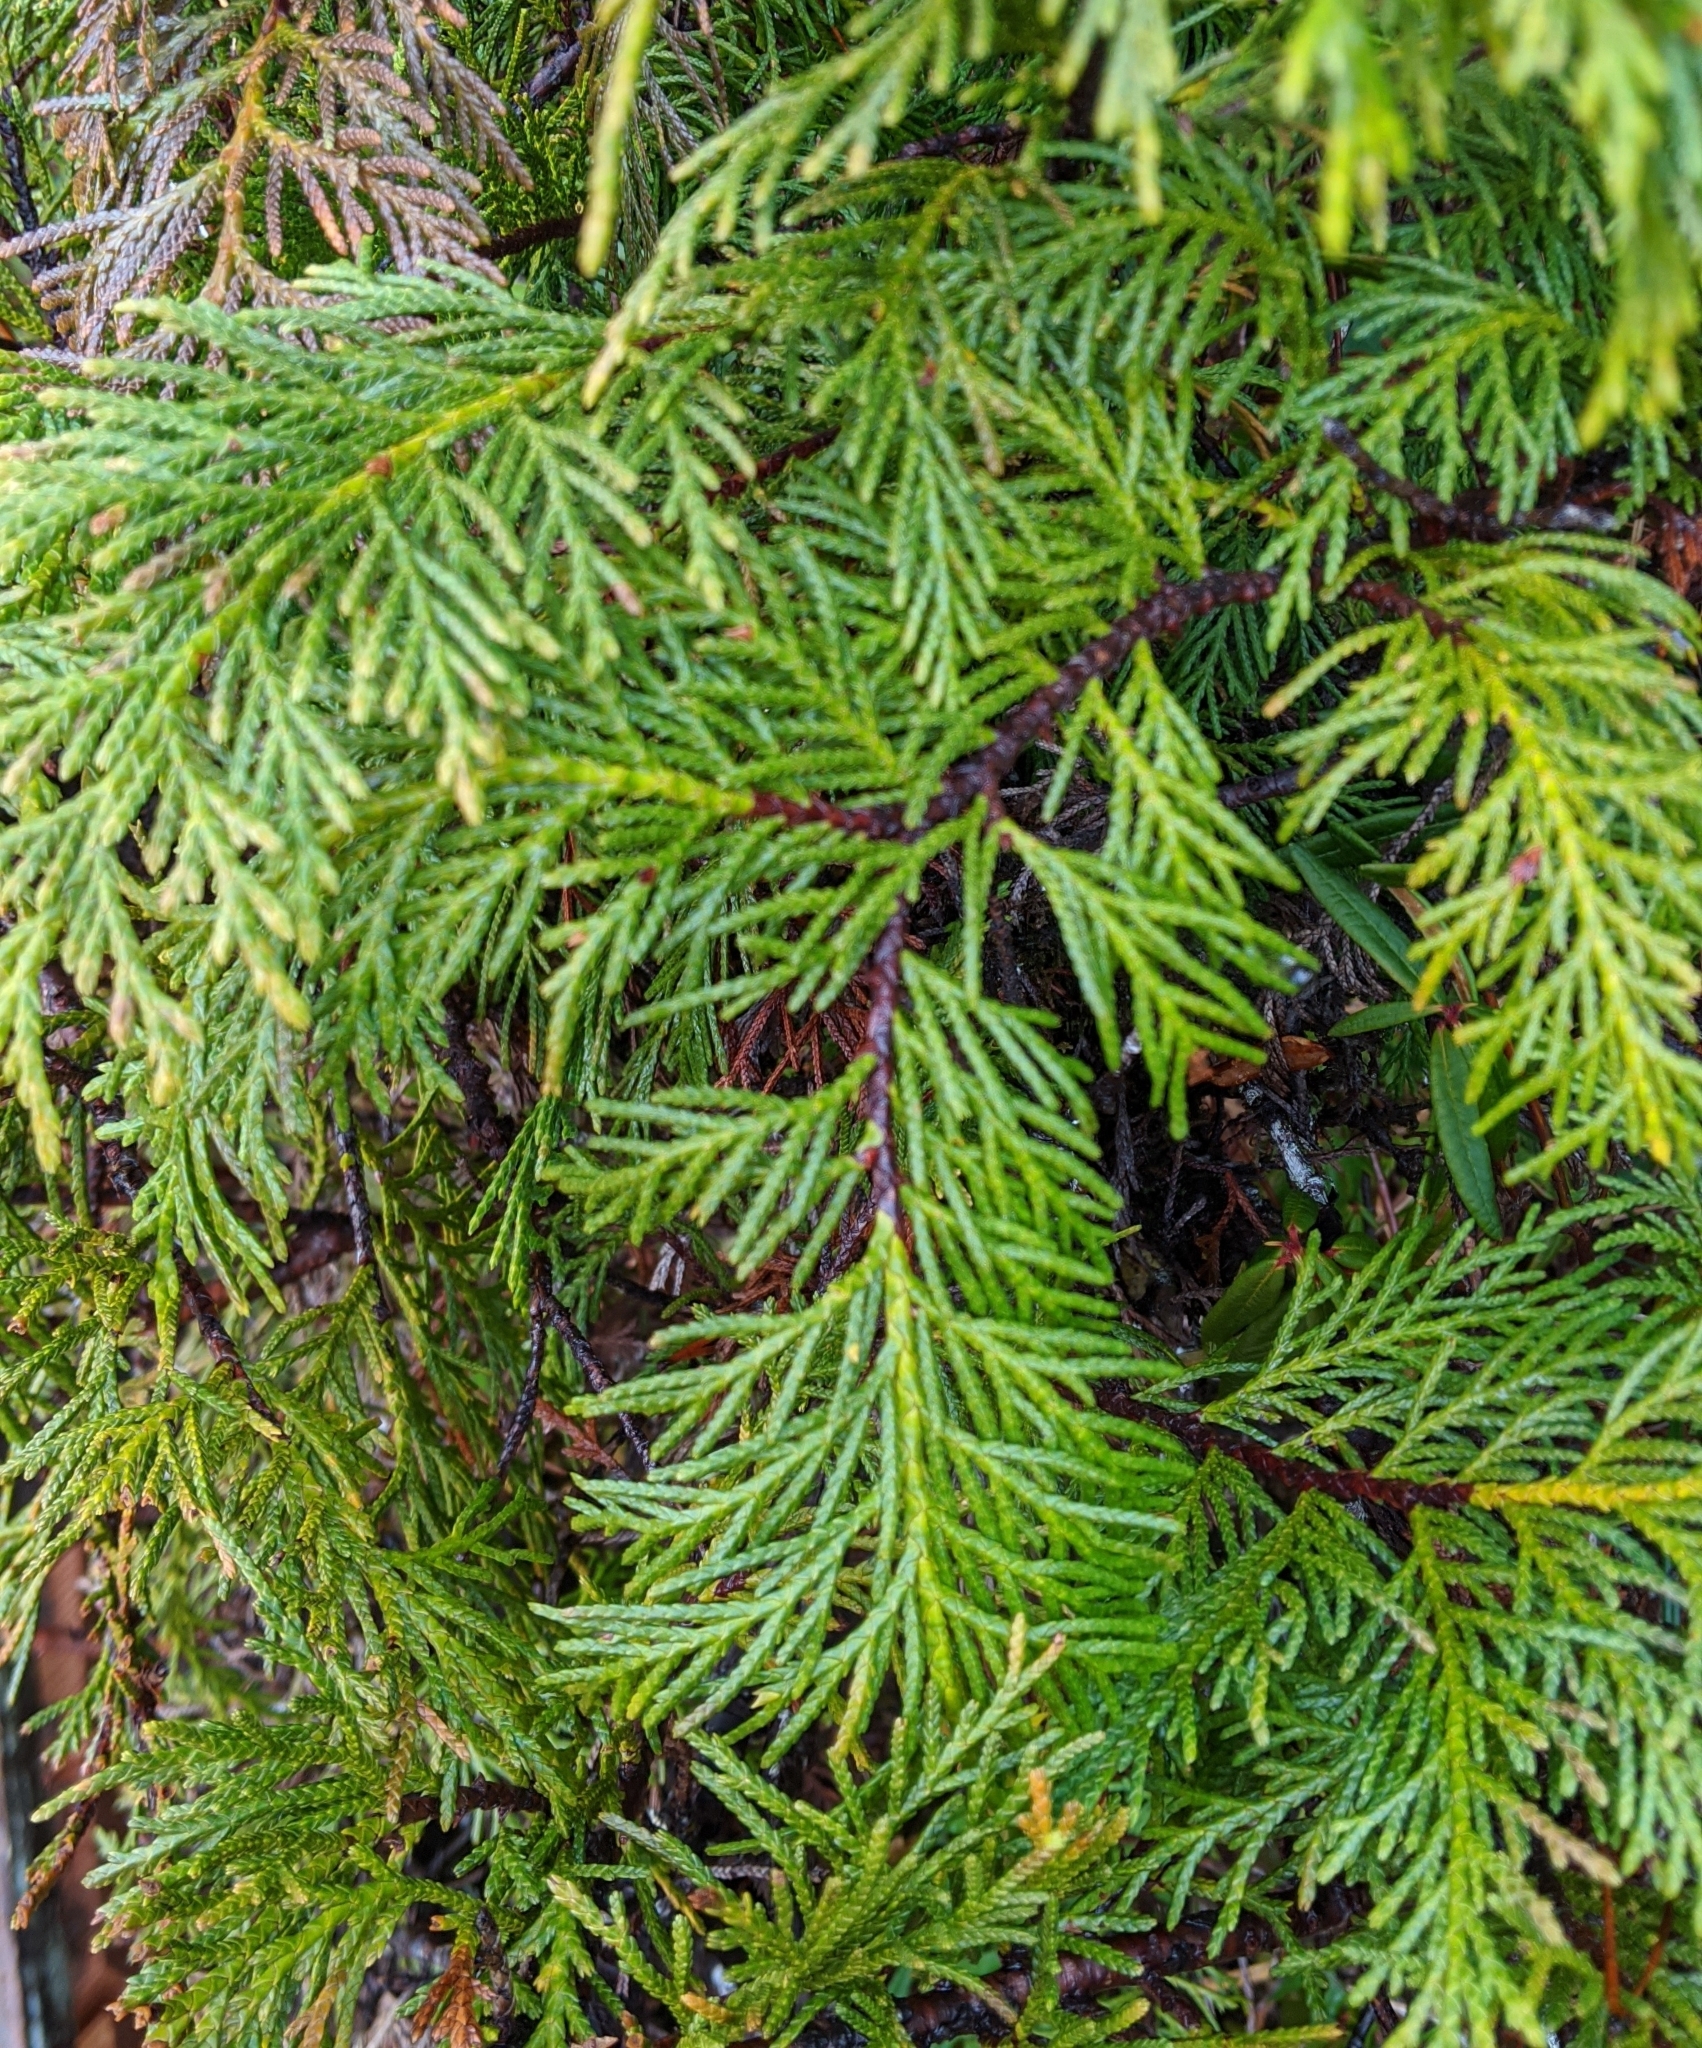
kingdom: Plantae
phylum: Tracheophyta
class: Pinopsida
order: Pinales
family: Cupressaceae
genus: Xanthocyparis
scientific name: Xanthocyparis nootkatensis
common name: Nootka cypress
